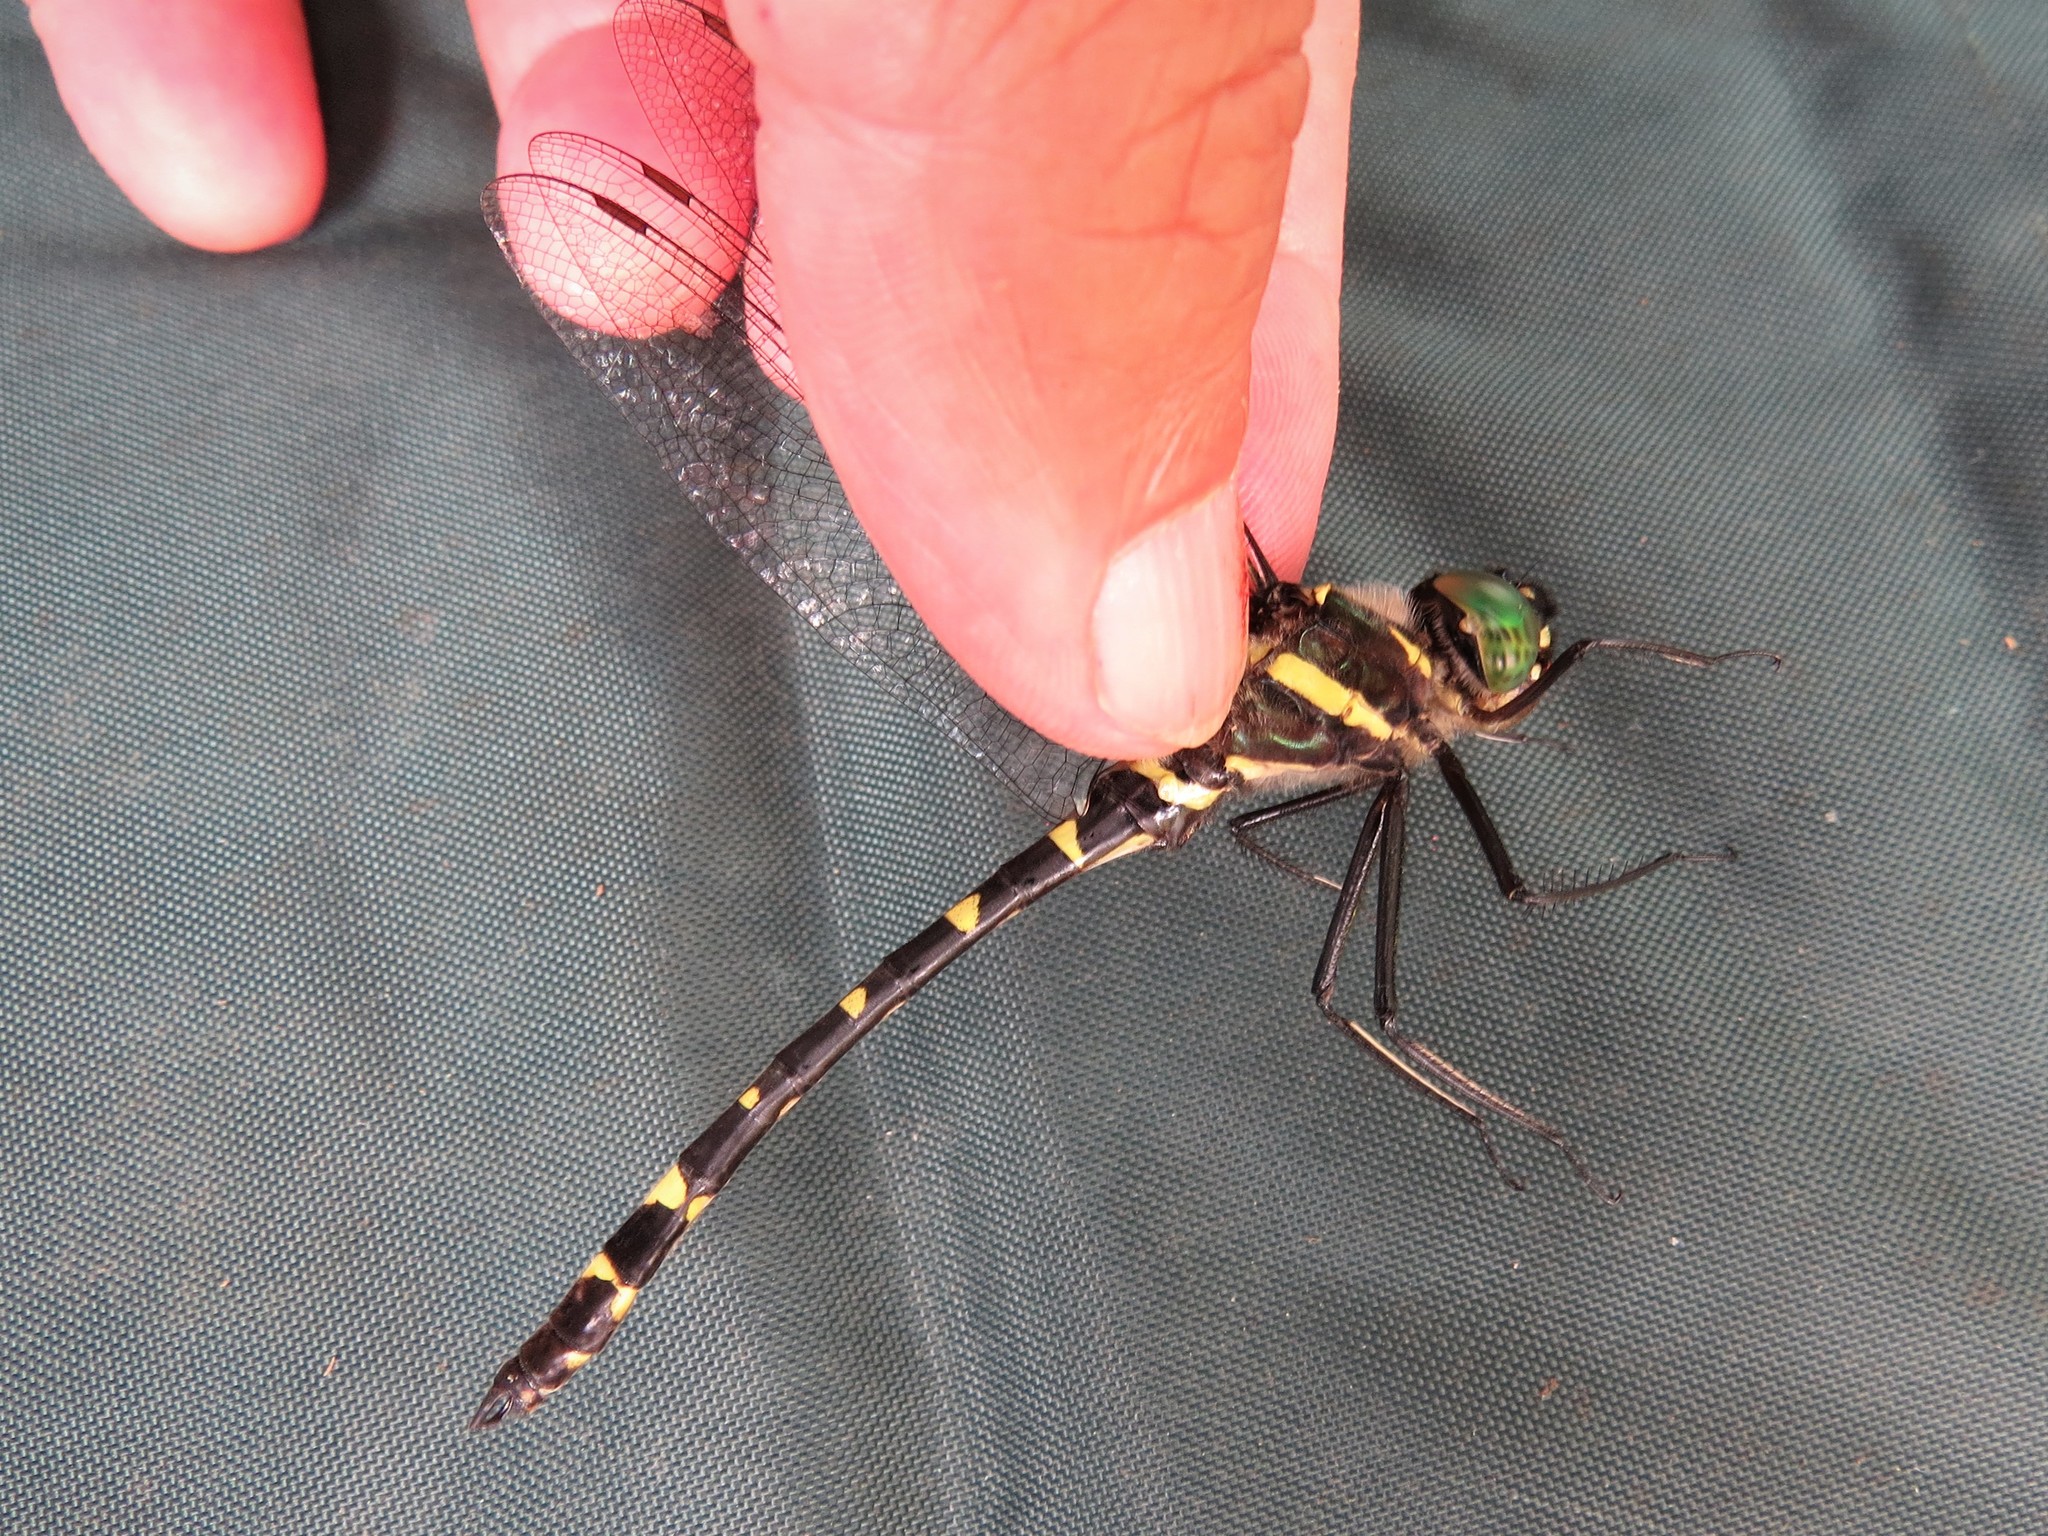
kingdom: Animalia
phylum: Arthropoda
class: Insecta
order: Odonata
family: Macromiidae
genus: Macromia
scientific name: Macromia taeniolata
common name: Royal river cruiser
